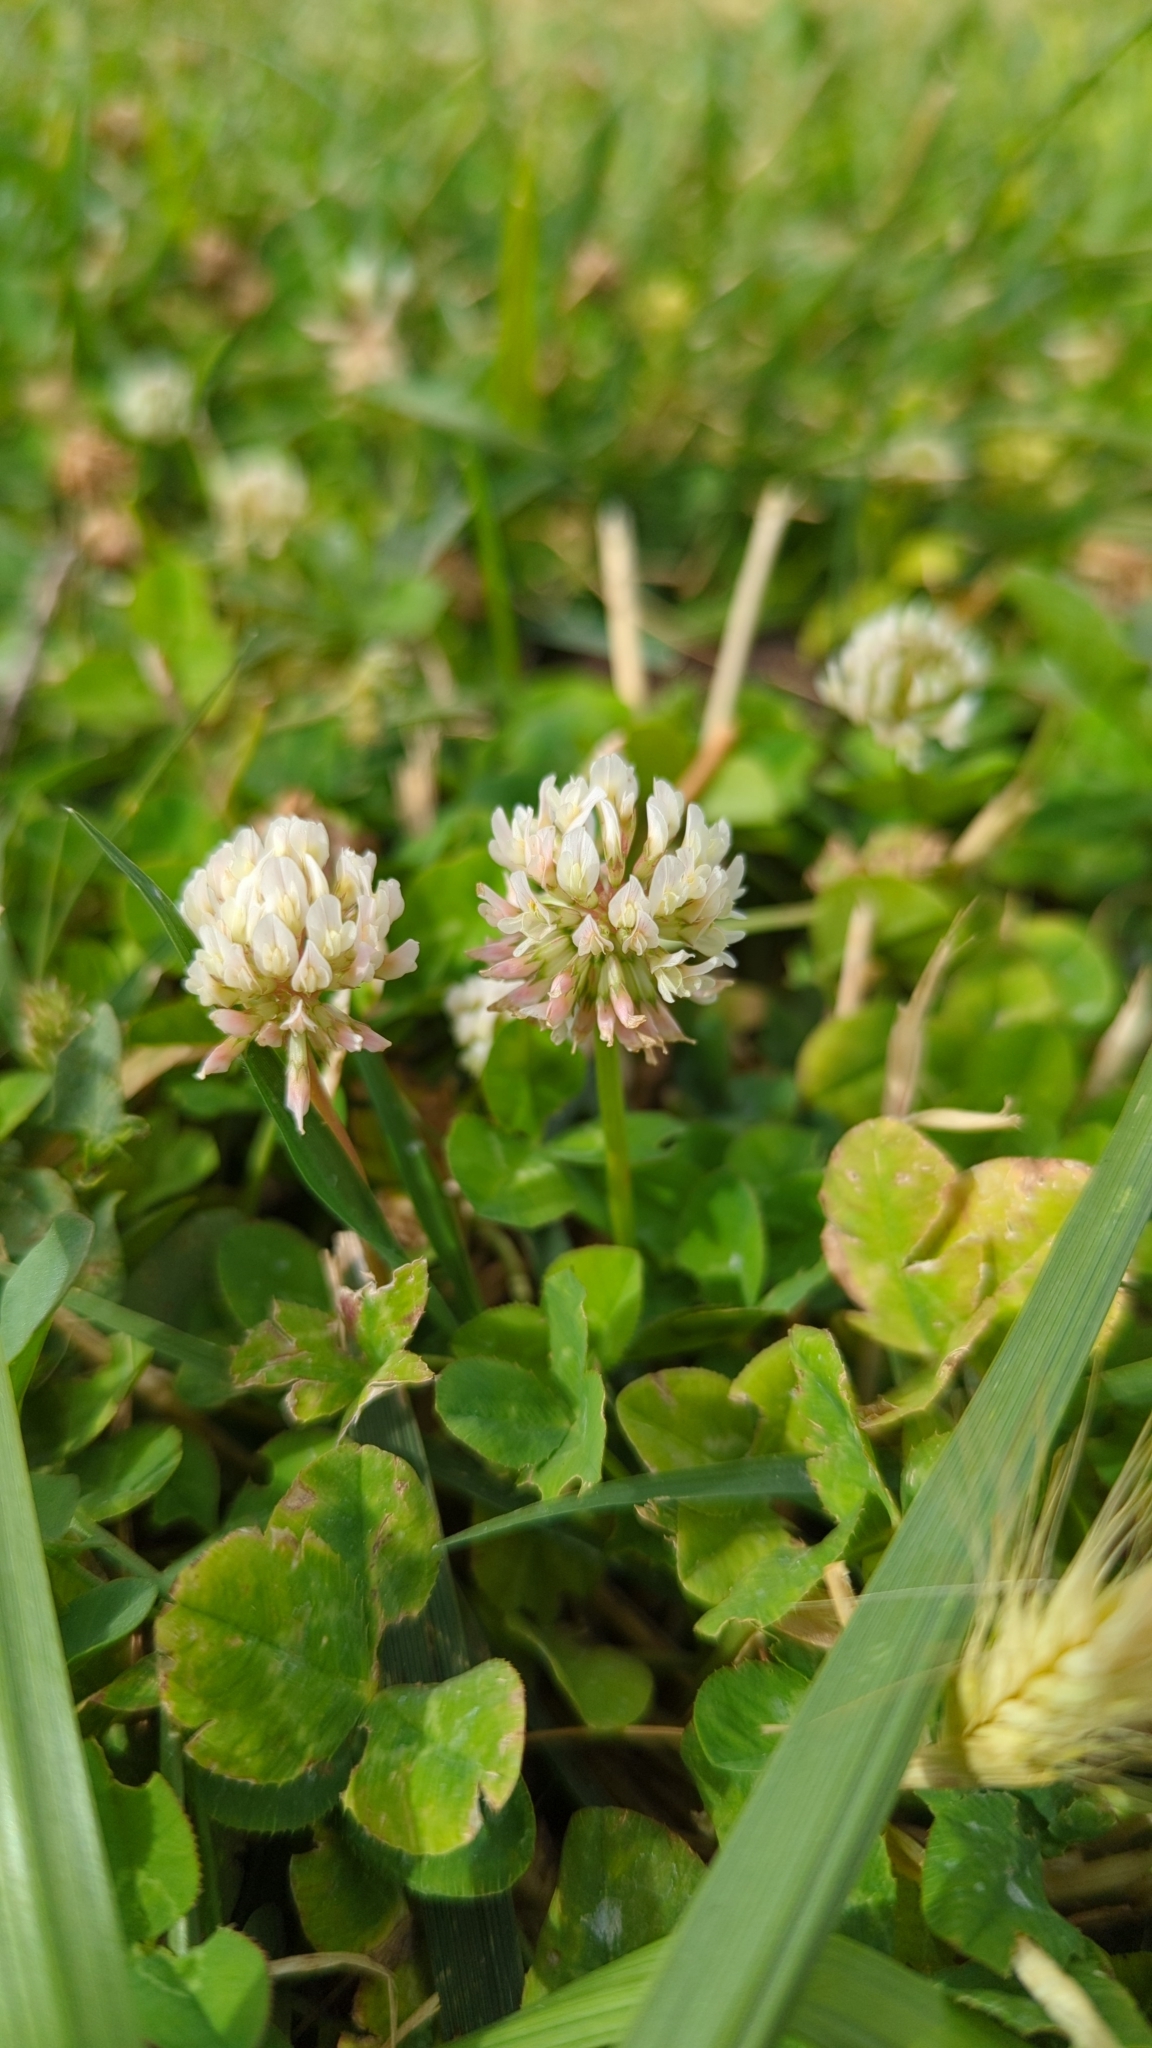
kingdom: Plantae
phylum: Tracheophyta
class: Magnoliopsida
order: Fabales
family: Fabaceae
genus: Trifolium
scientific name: Trifolium repens
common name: White clover
